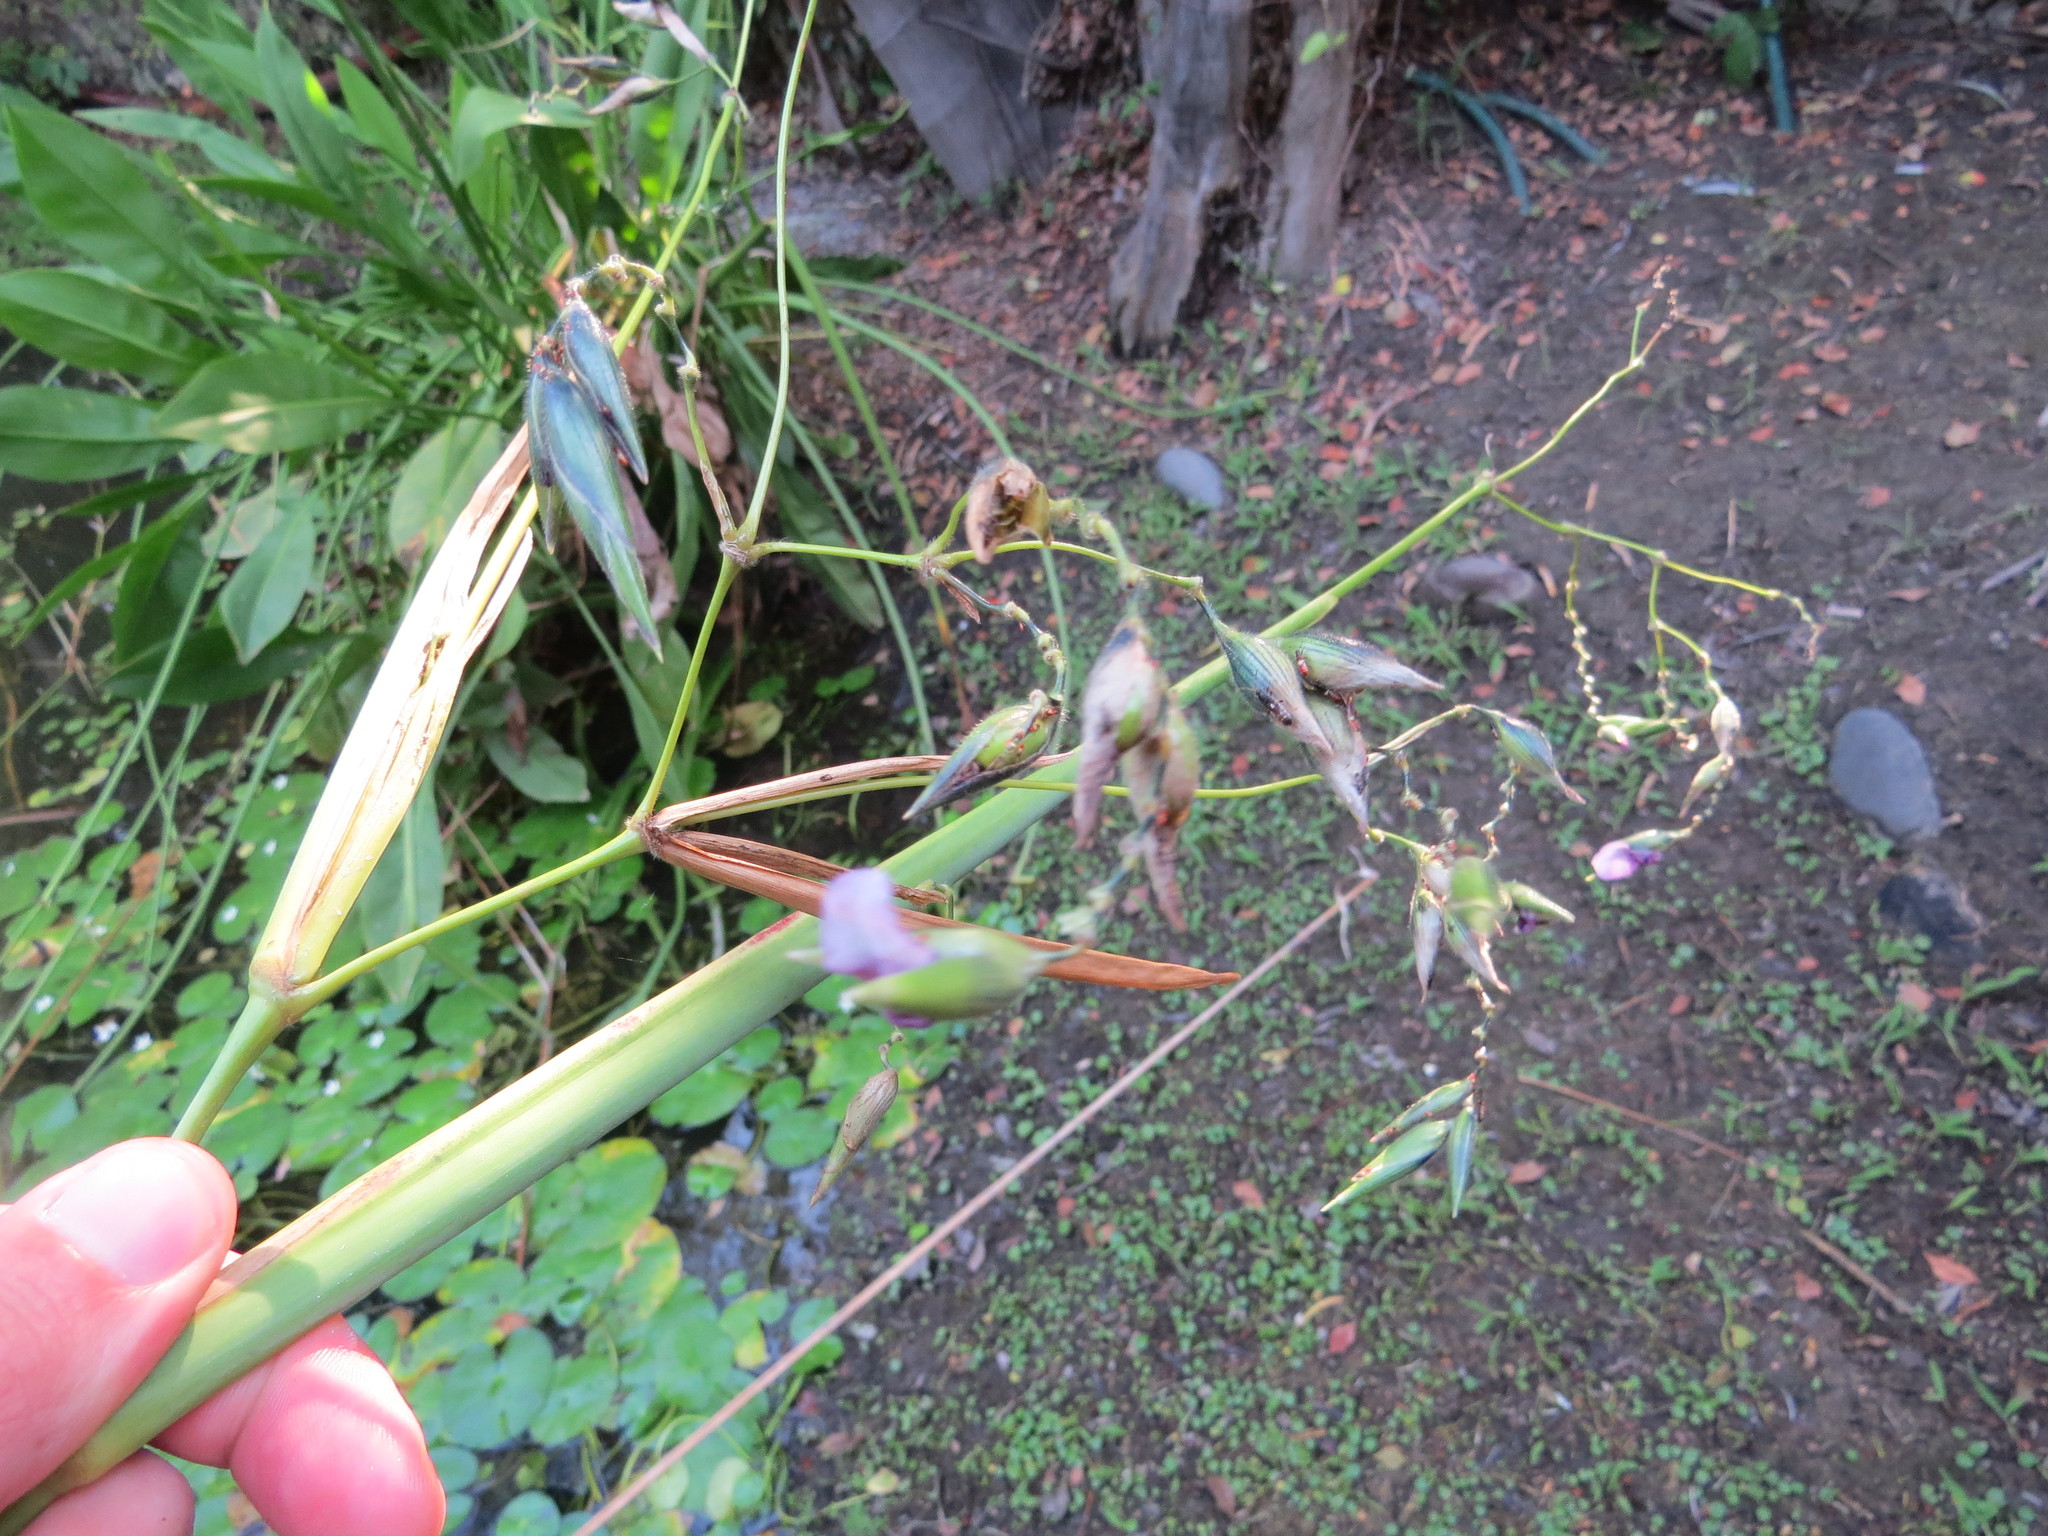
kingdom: Plantae
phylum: Tracheophyta
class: Liliopsida
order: Zingiberales
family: Marantaceae
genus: Thalia
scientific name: Thalia geniculata
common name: Arrowroot
